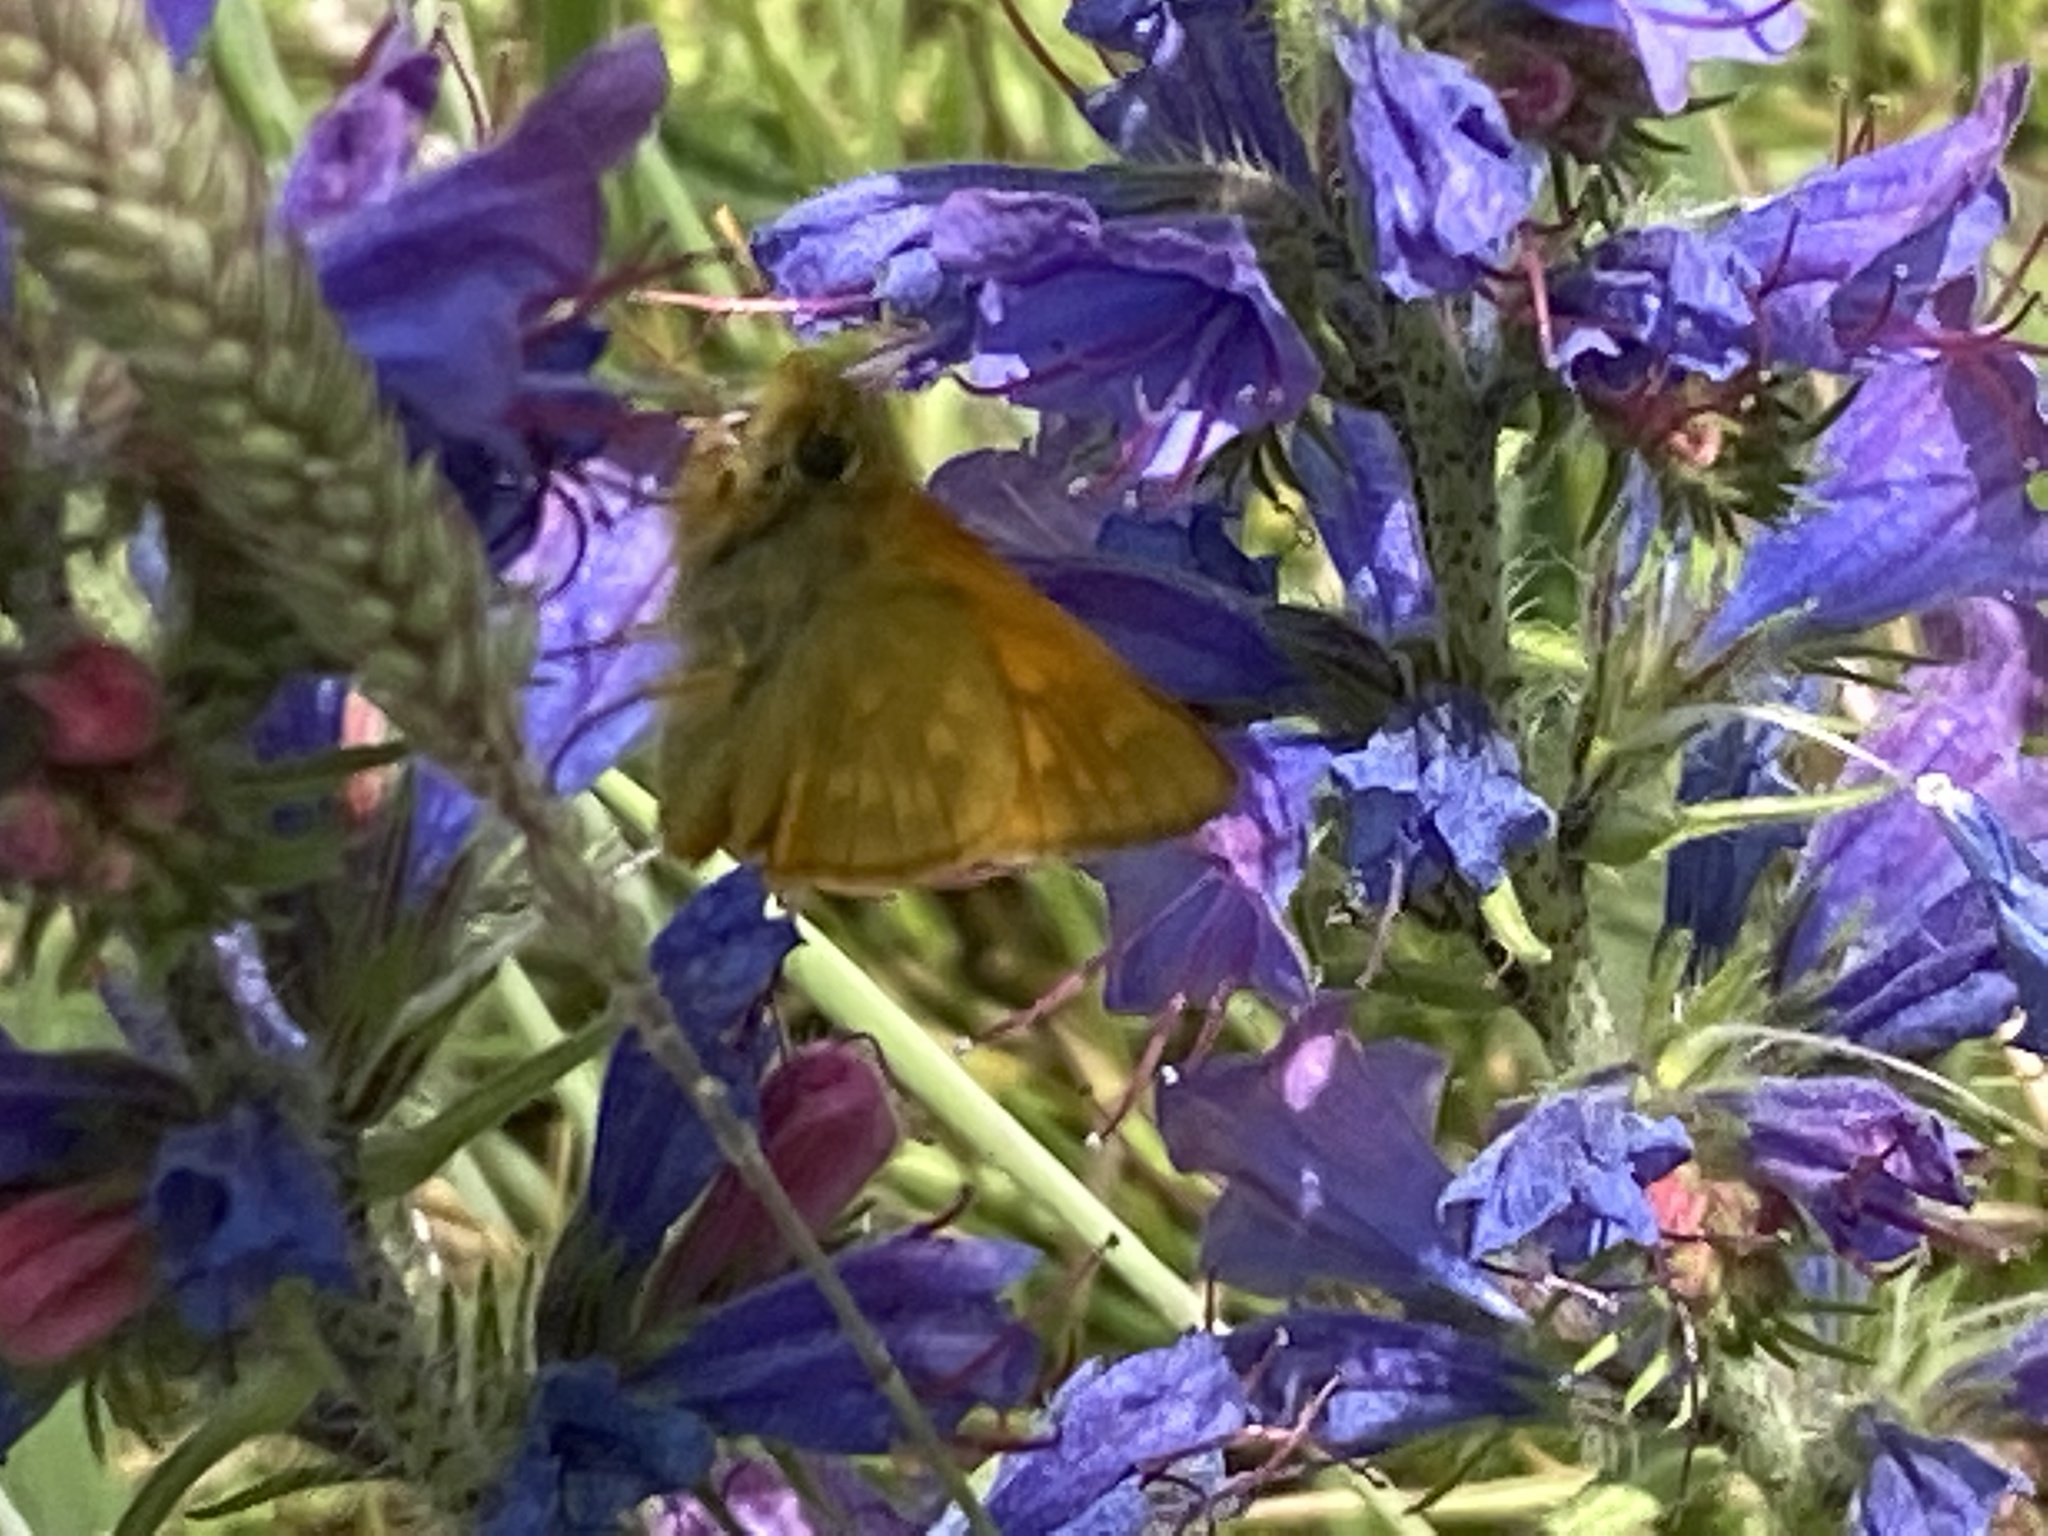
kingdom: Animalia
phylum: Arthropoda
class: Insecta
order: Lepidoptera
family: Hesperiidae
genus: Ochlodes
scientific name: Ochlodes venata
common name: Large skipper
